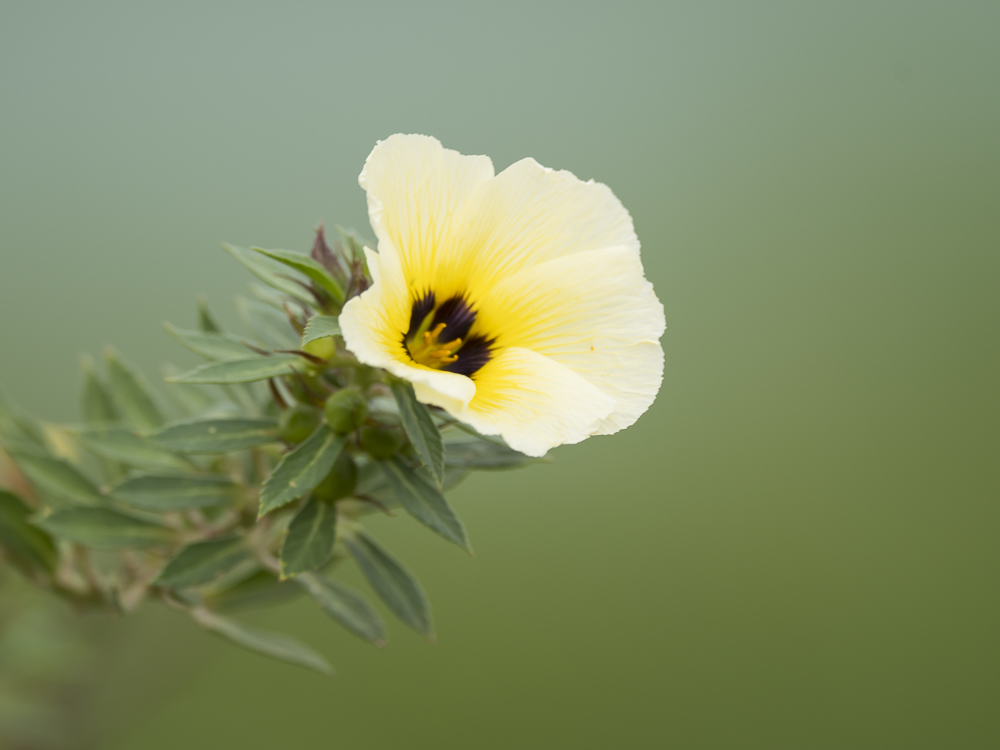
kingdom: Plantae
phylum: Tracheophyta
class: Magnoliopsida
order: Malpighiales
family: Turneraceae
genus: Turnera
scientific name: Turnera subulata
